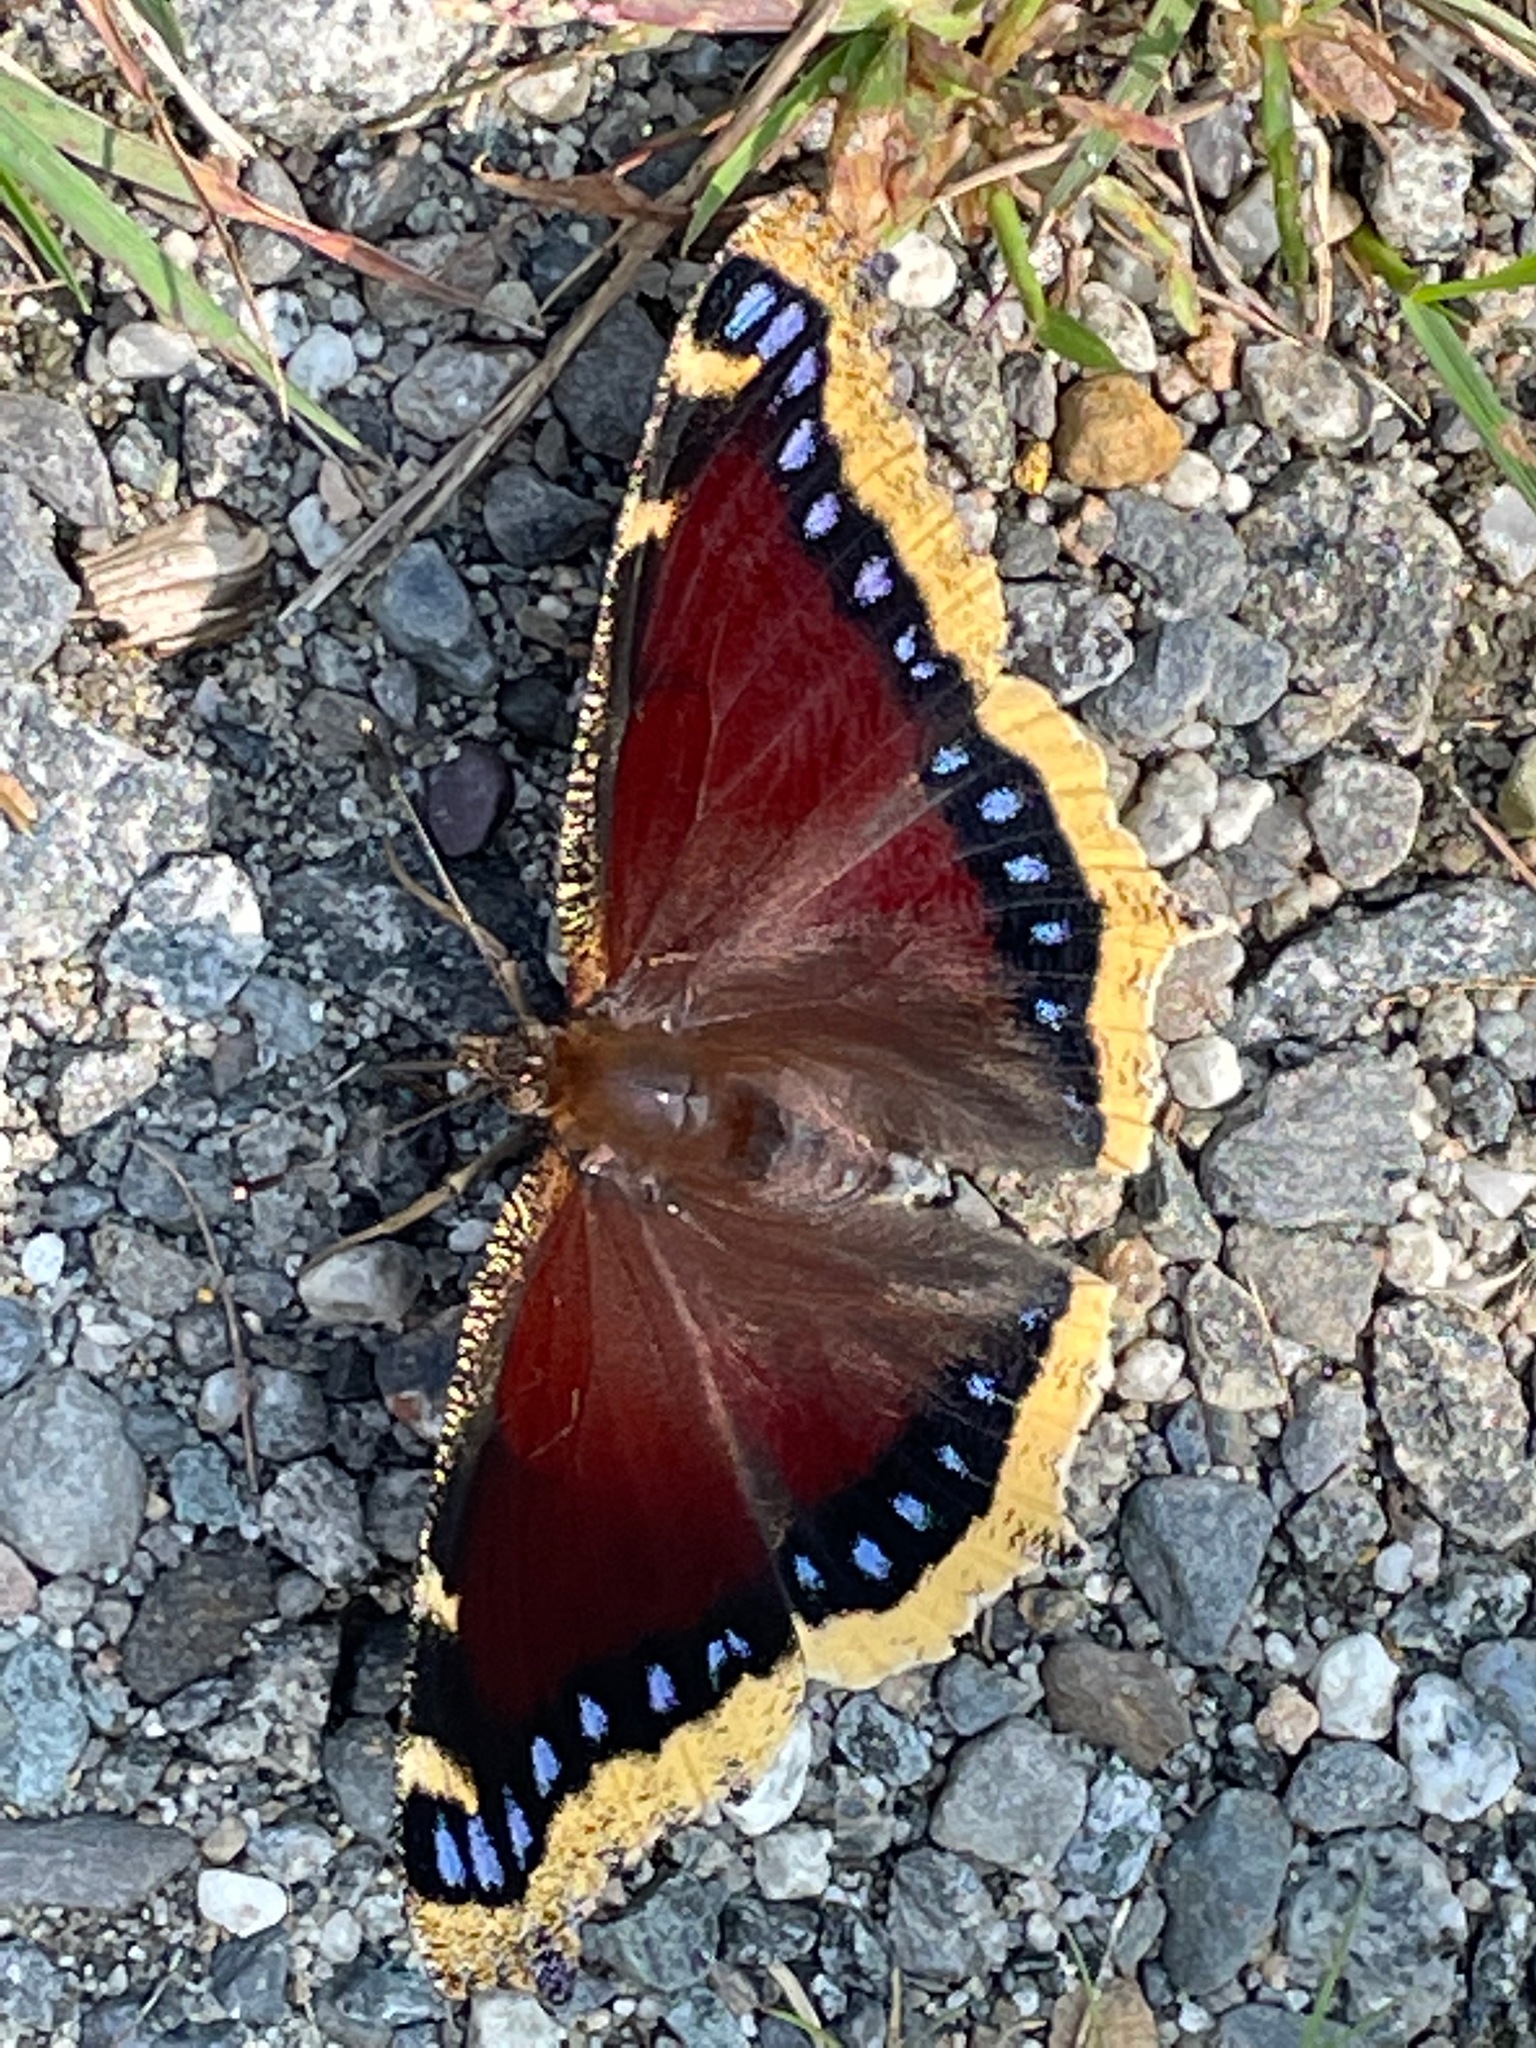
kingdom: Animalia
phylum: Arthropoda
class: Insecta
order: Lepidoptera
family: Nymphalidae
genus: Nymphalis
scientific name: Nymphalis antiopa
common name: Camberwell beauty
